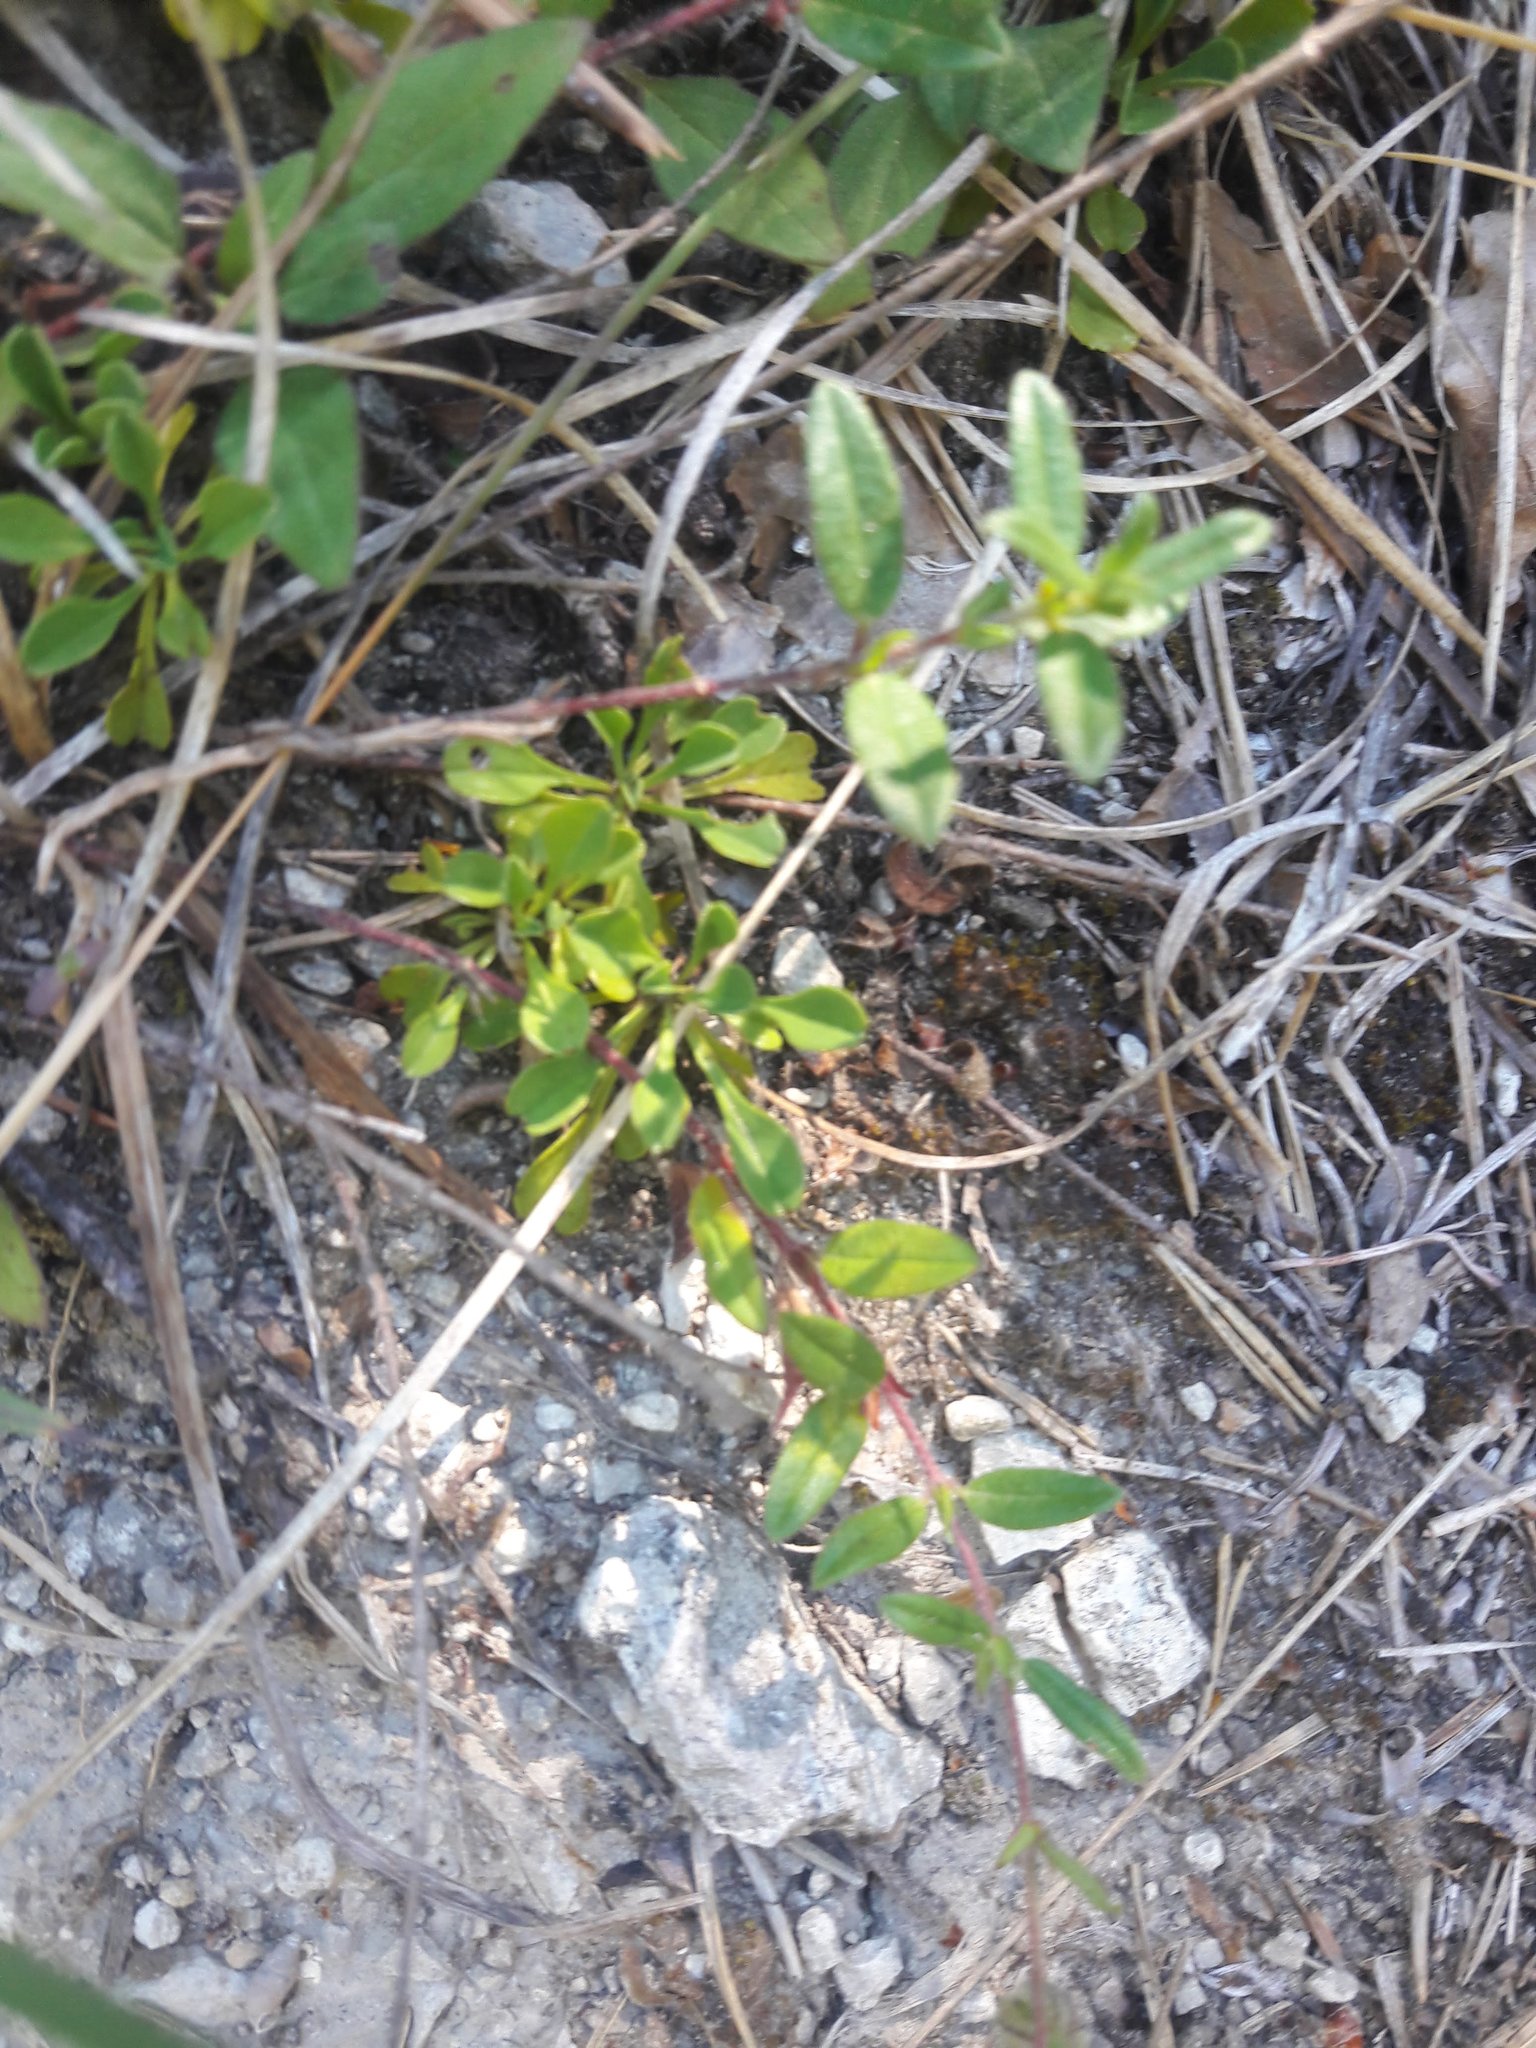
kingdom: Plantae
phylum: Tracheophyta
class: Magnoliopsida
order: Malvales
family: Cistaceae
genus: Helianthemum
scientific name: Helianthemum nummularium
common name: Common rock-rose
